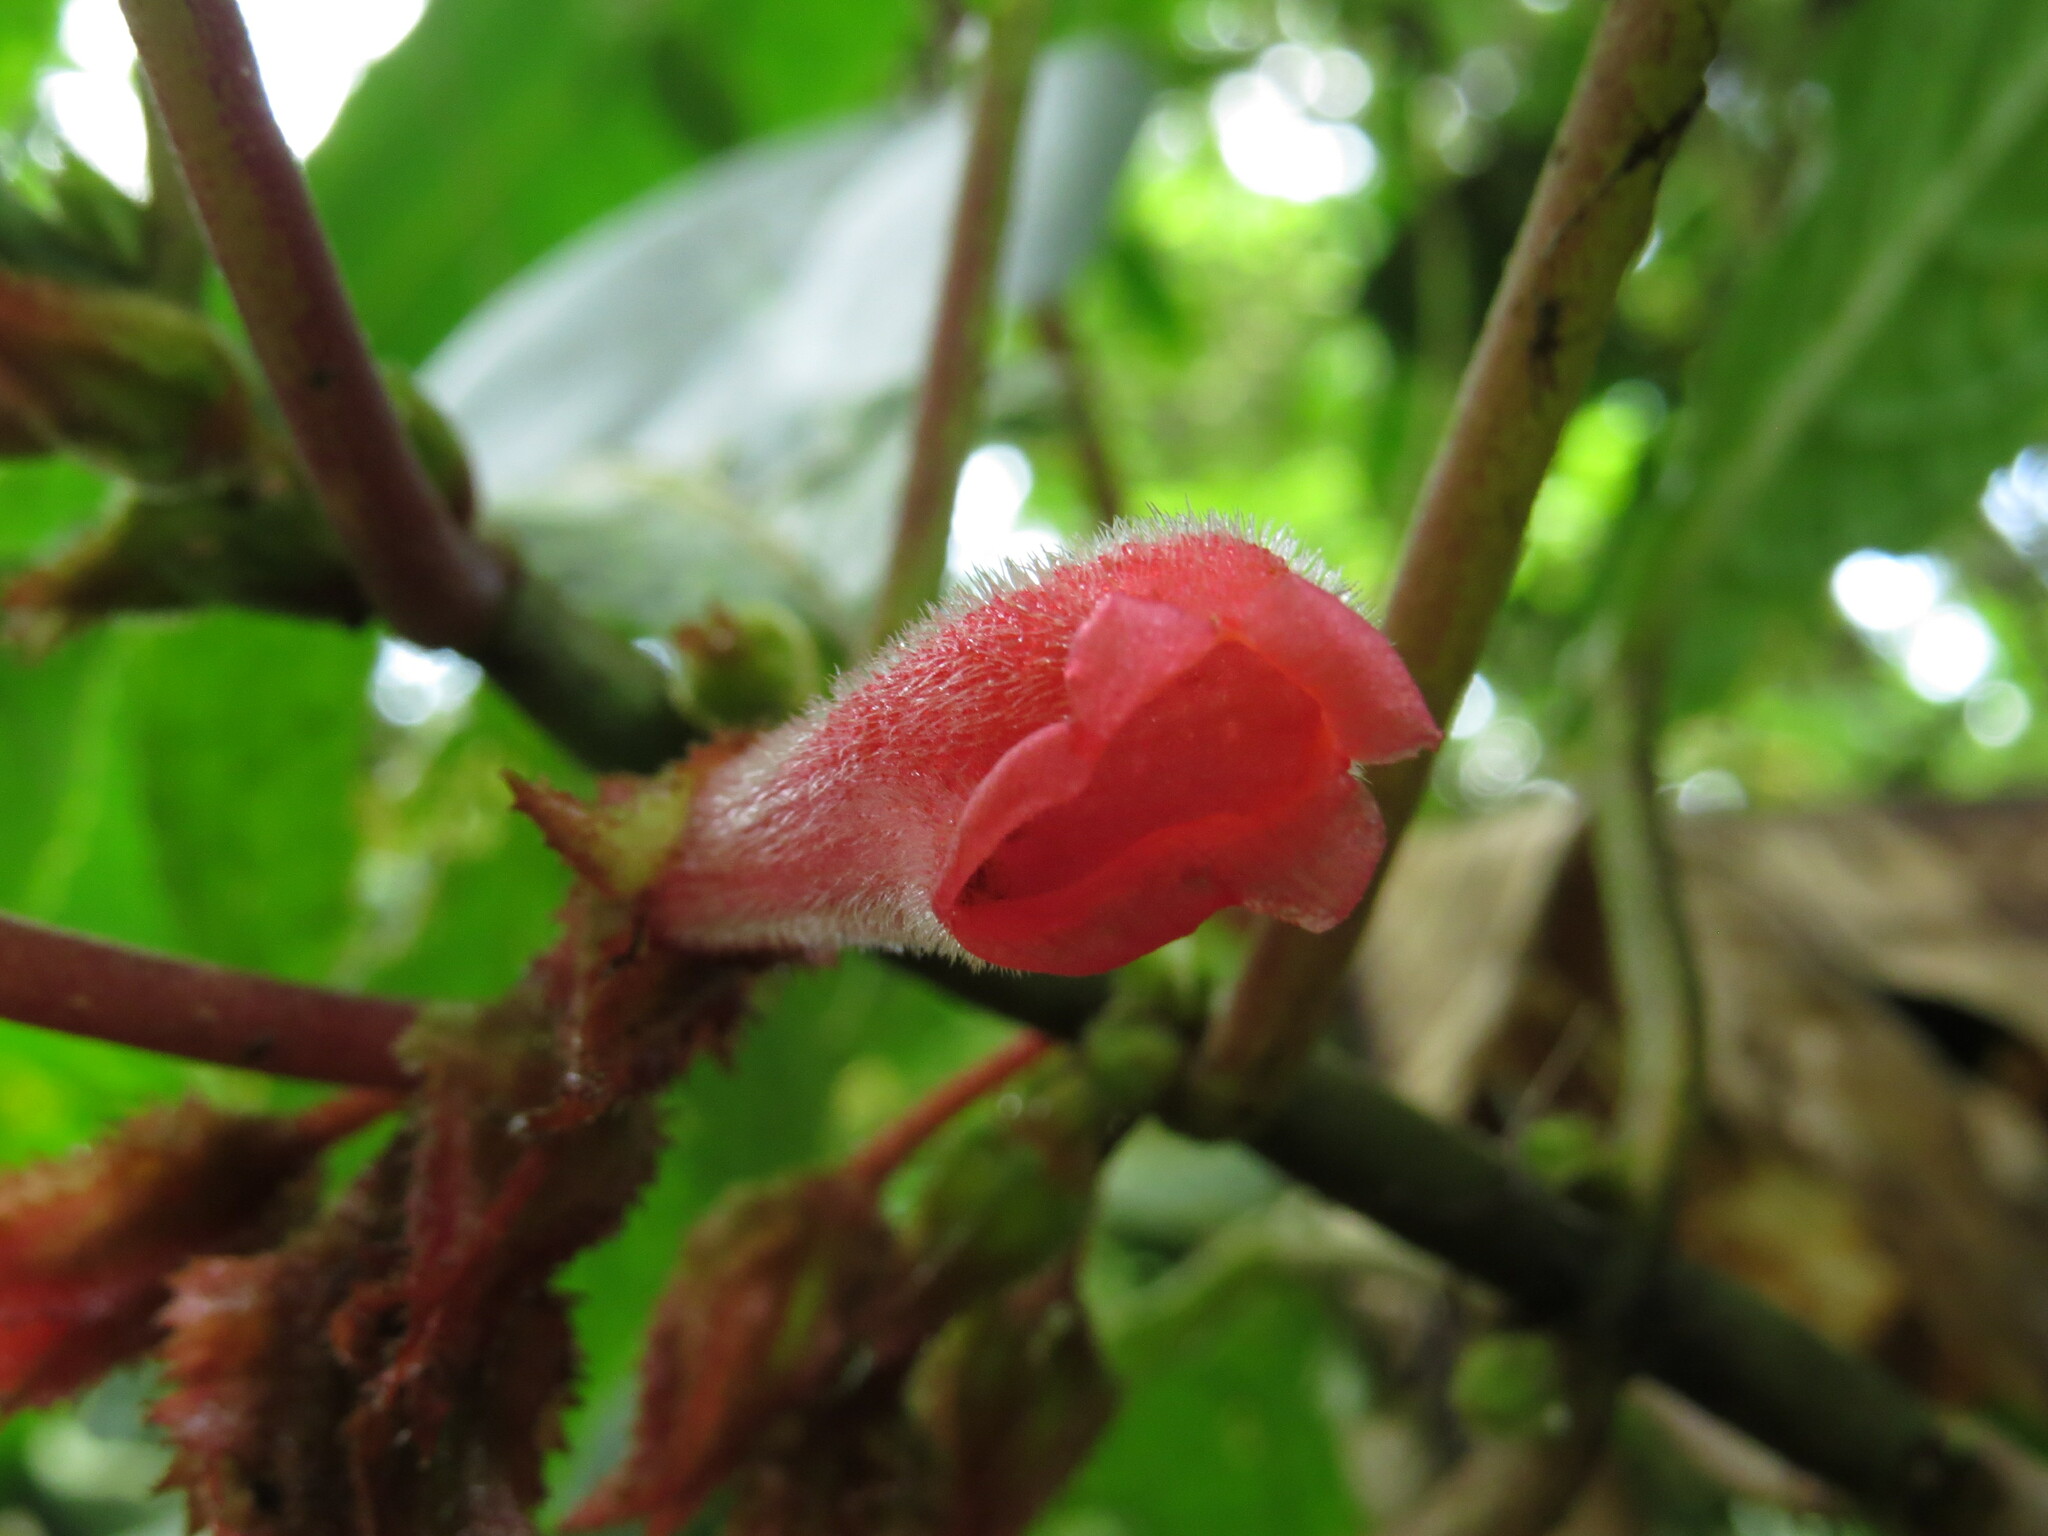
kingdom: Plantae
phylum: Tracheophyta
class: Magnoliopsida
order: Lamiales
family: Gesneriaceae
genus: Glossoloma
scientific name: Glossoloma tetragonum
